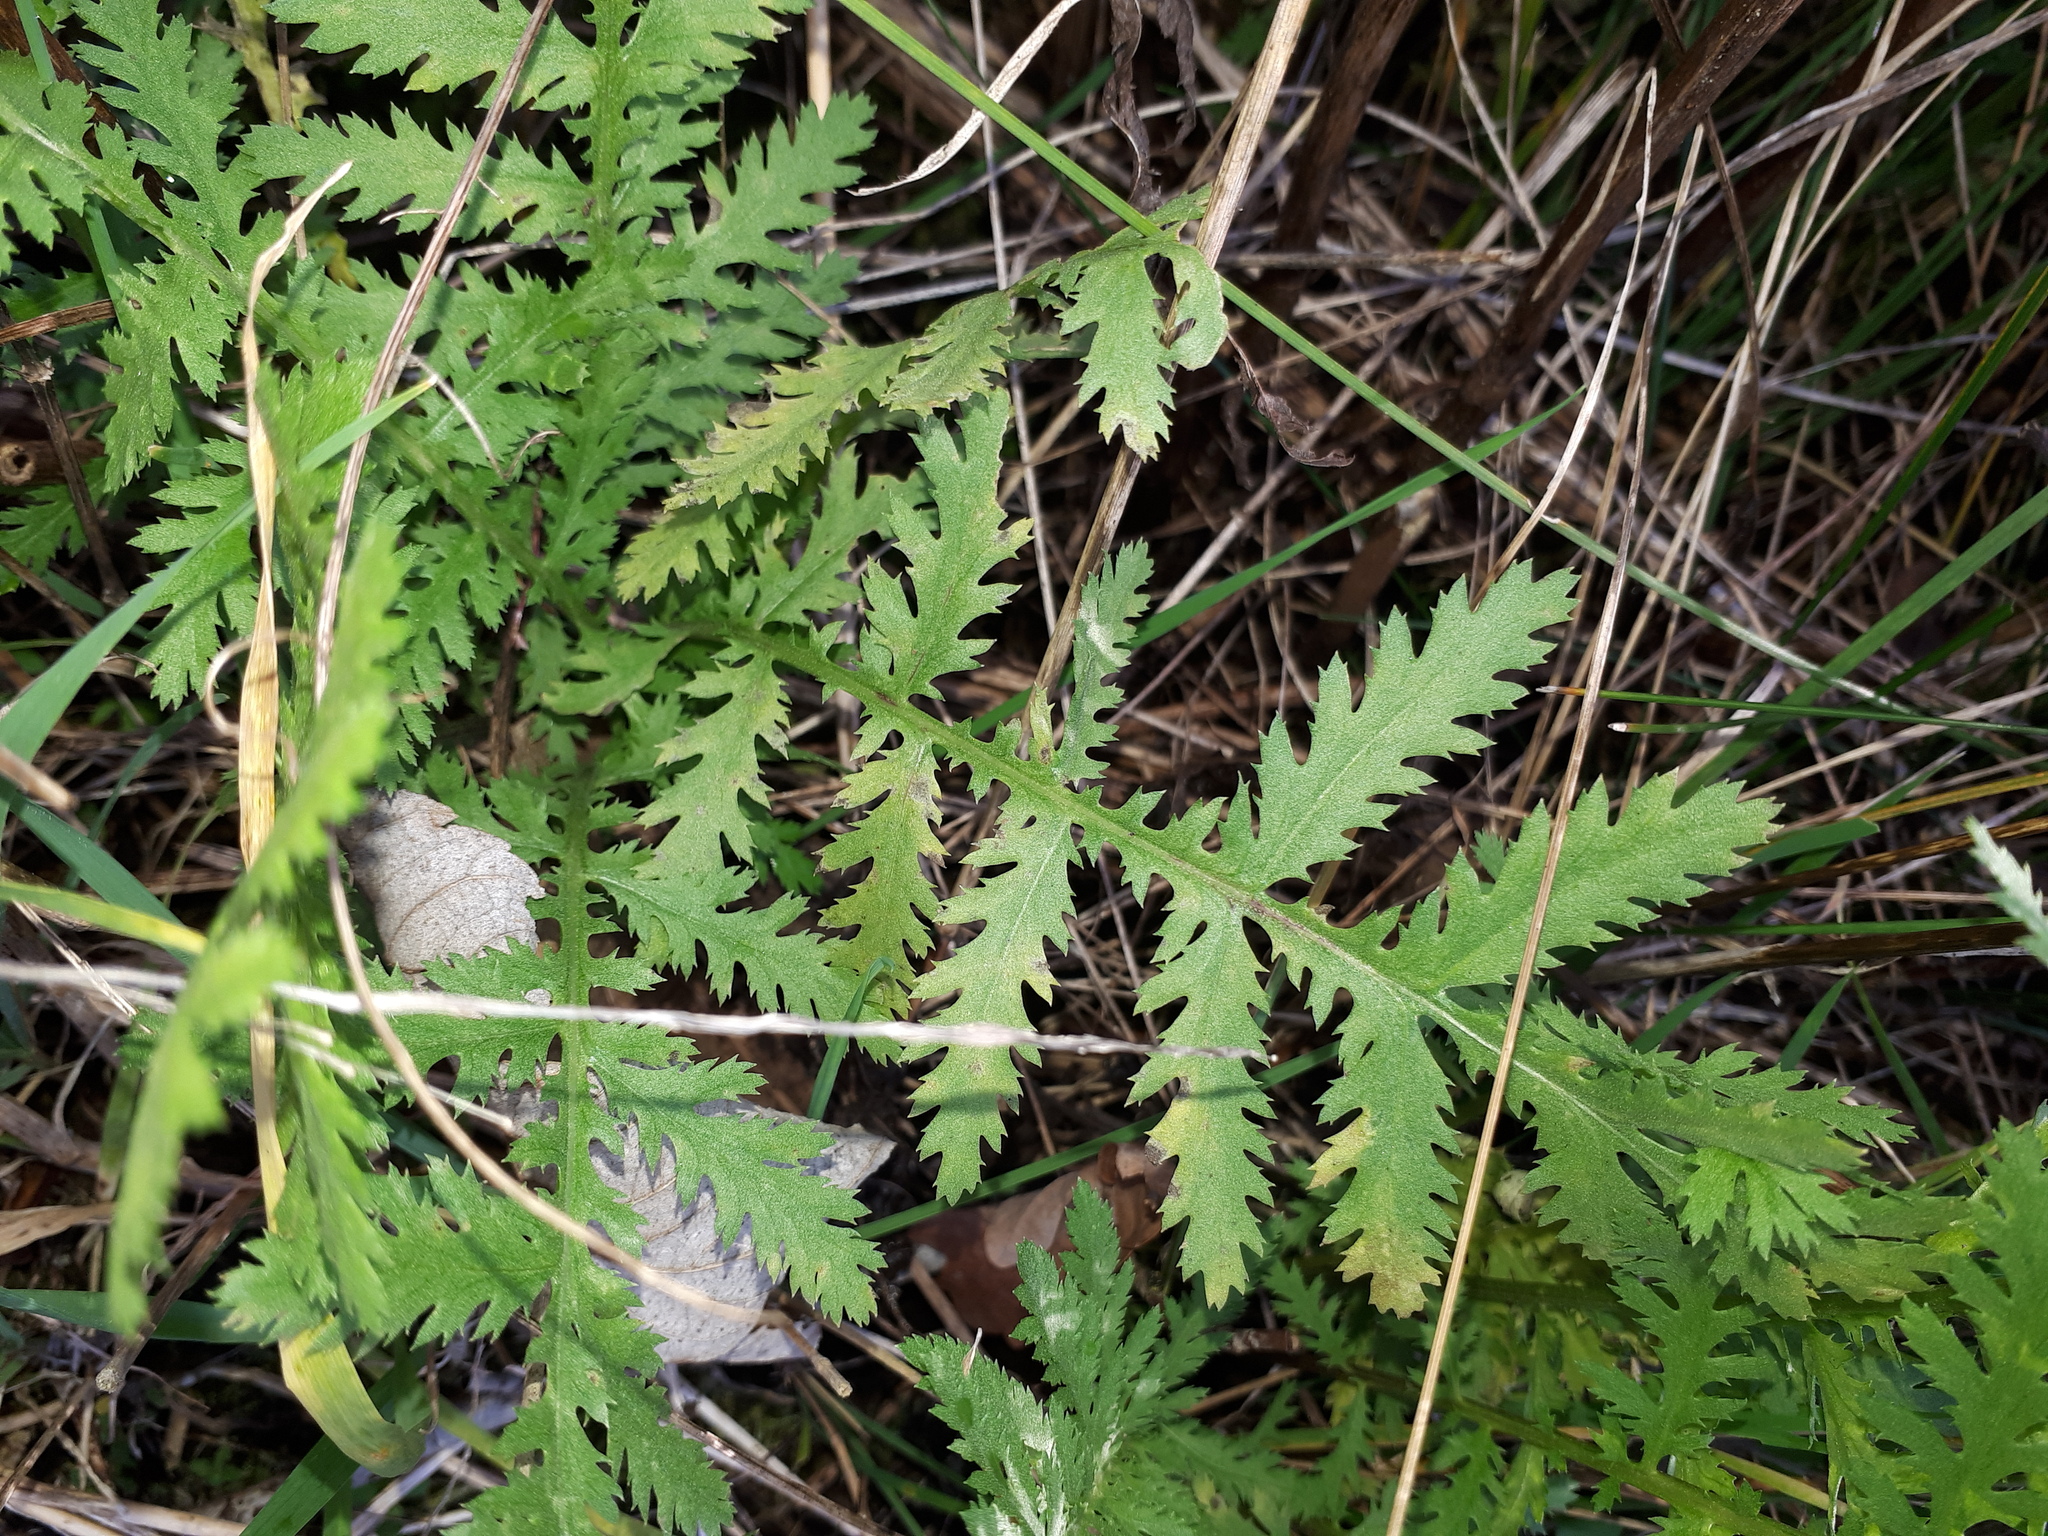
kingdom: Plantae
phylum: Tracheophyta
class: Magnoliopsida
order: Asterales
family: Asteraceae
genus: Tanacetum
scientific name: Tanacetum vulgare
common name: Common tansy
